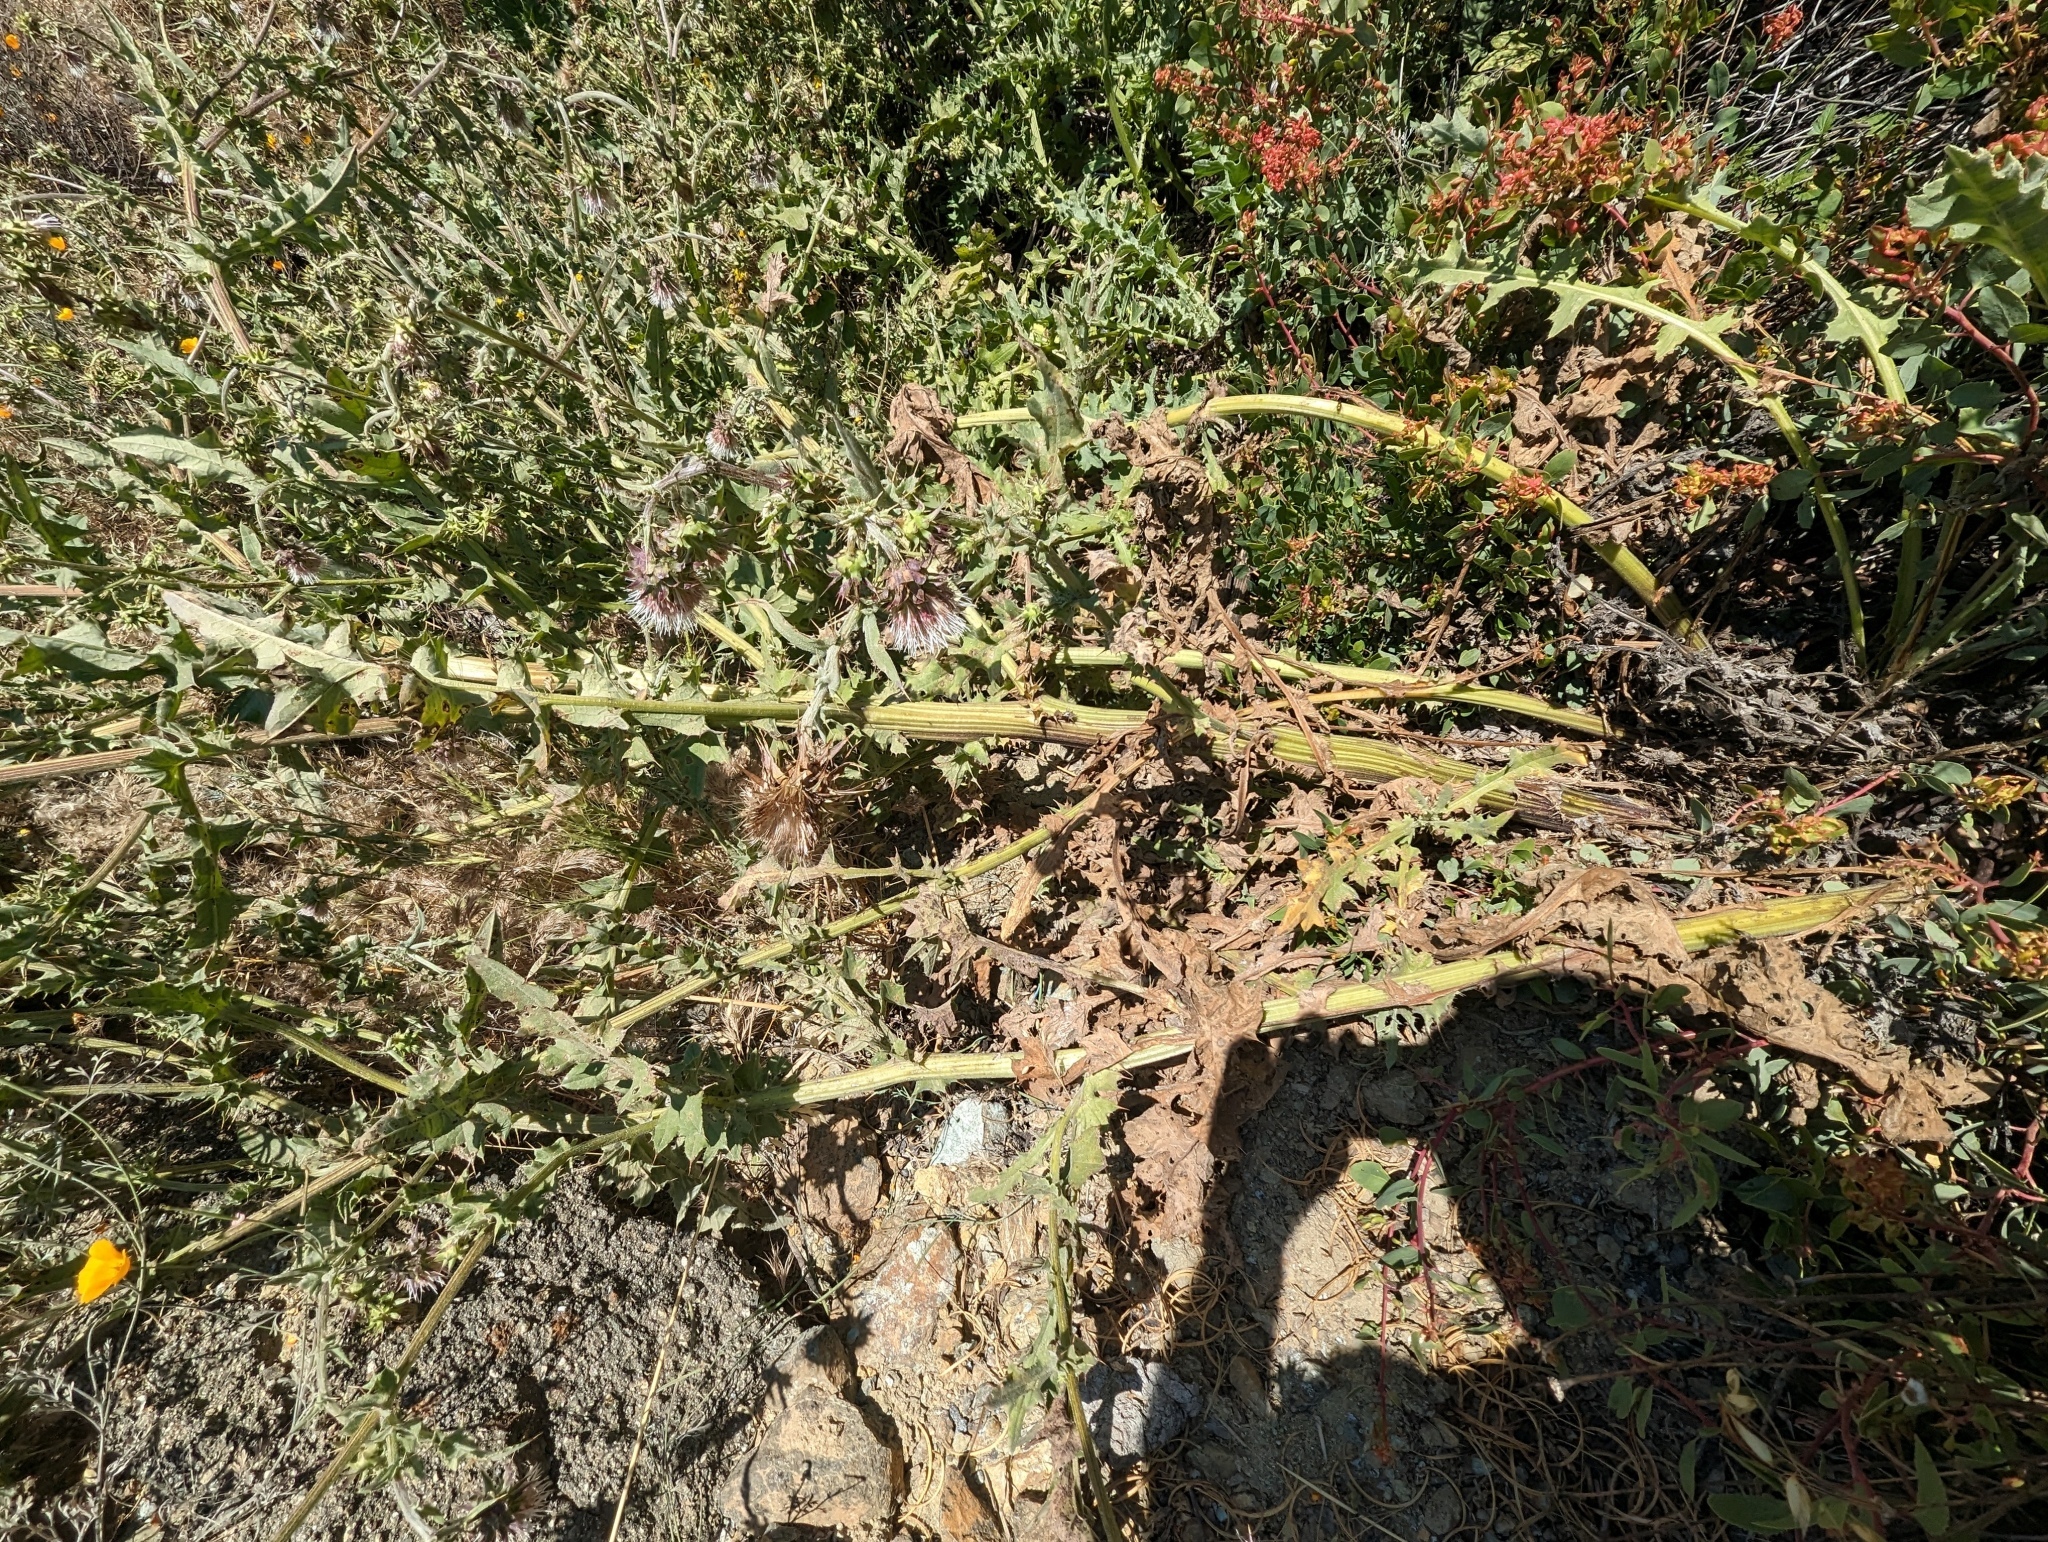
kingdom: Plantae
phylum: Tracheophyta
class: Magnoliopsida
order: Asterales
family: Asteraceae
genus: Cirsium
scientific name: Cirsium fontinale
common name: Fountain thistle
